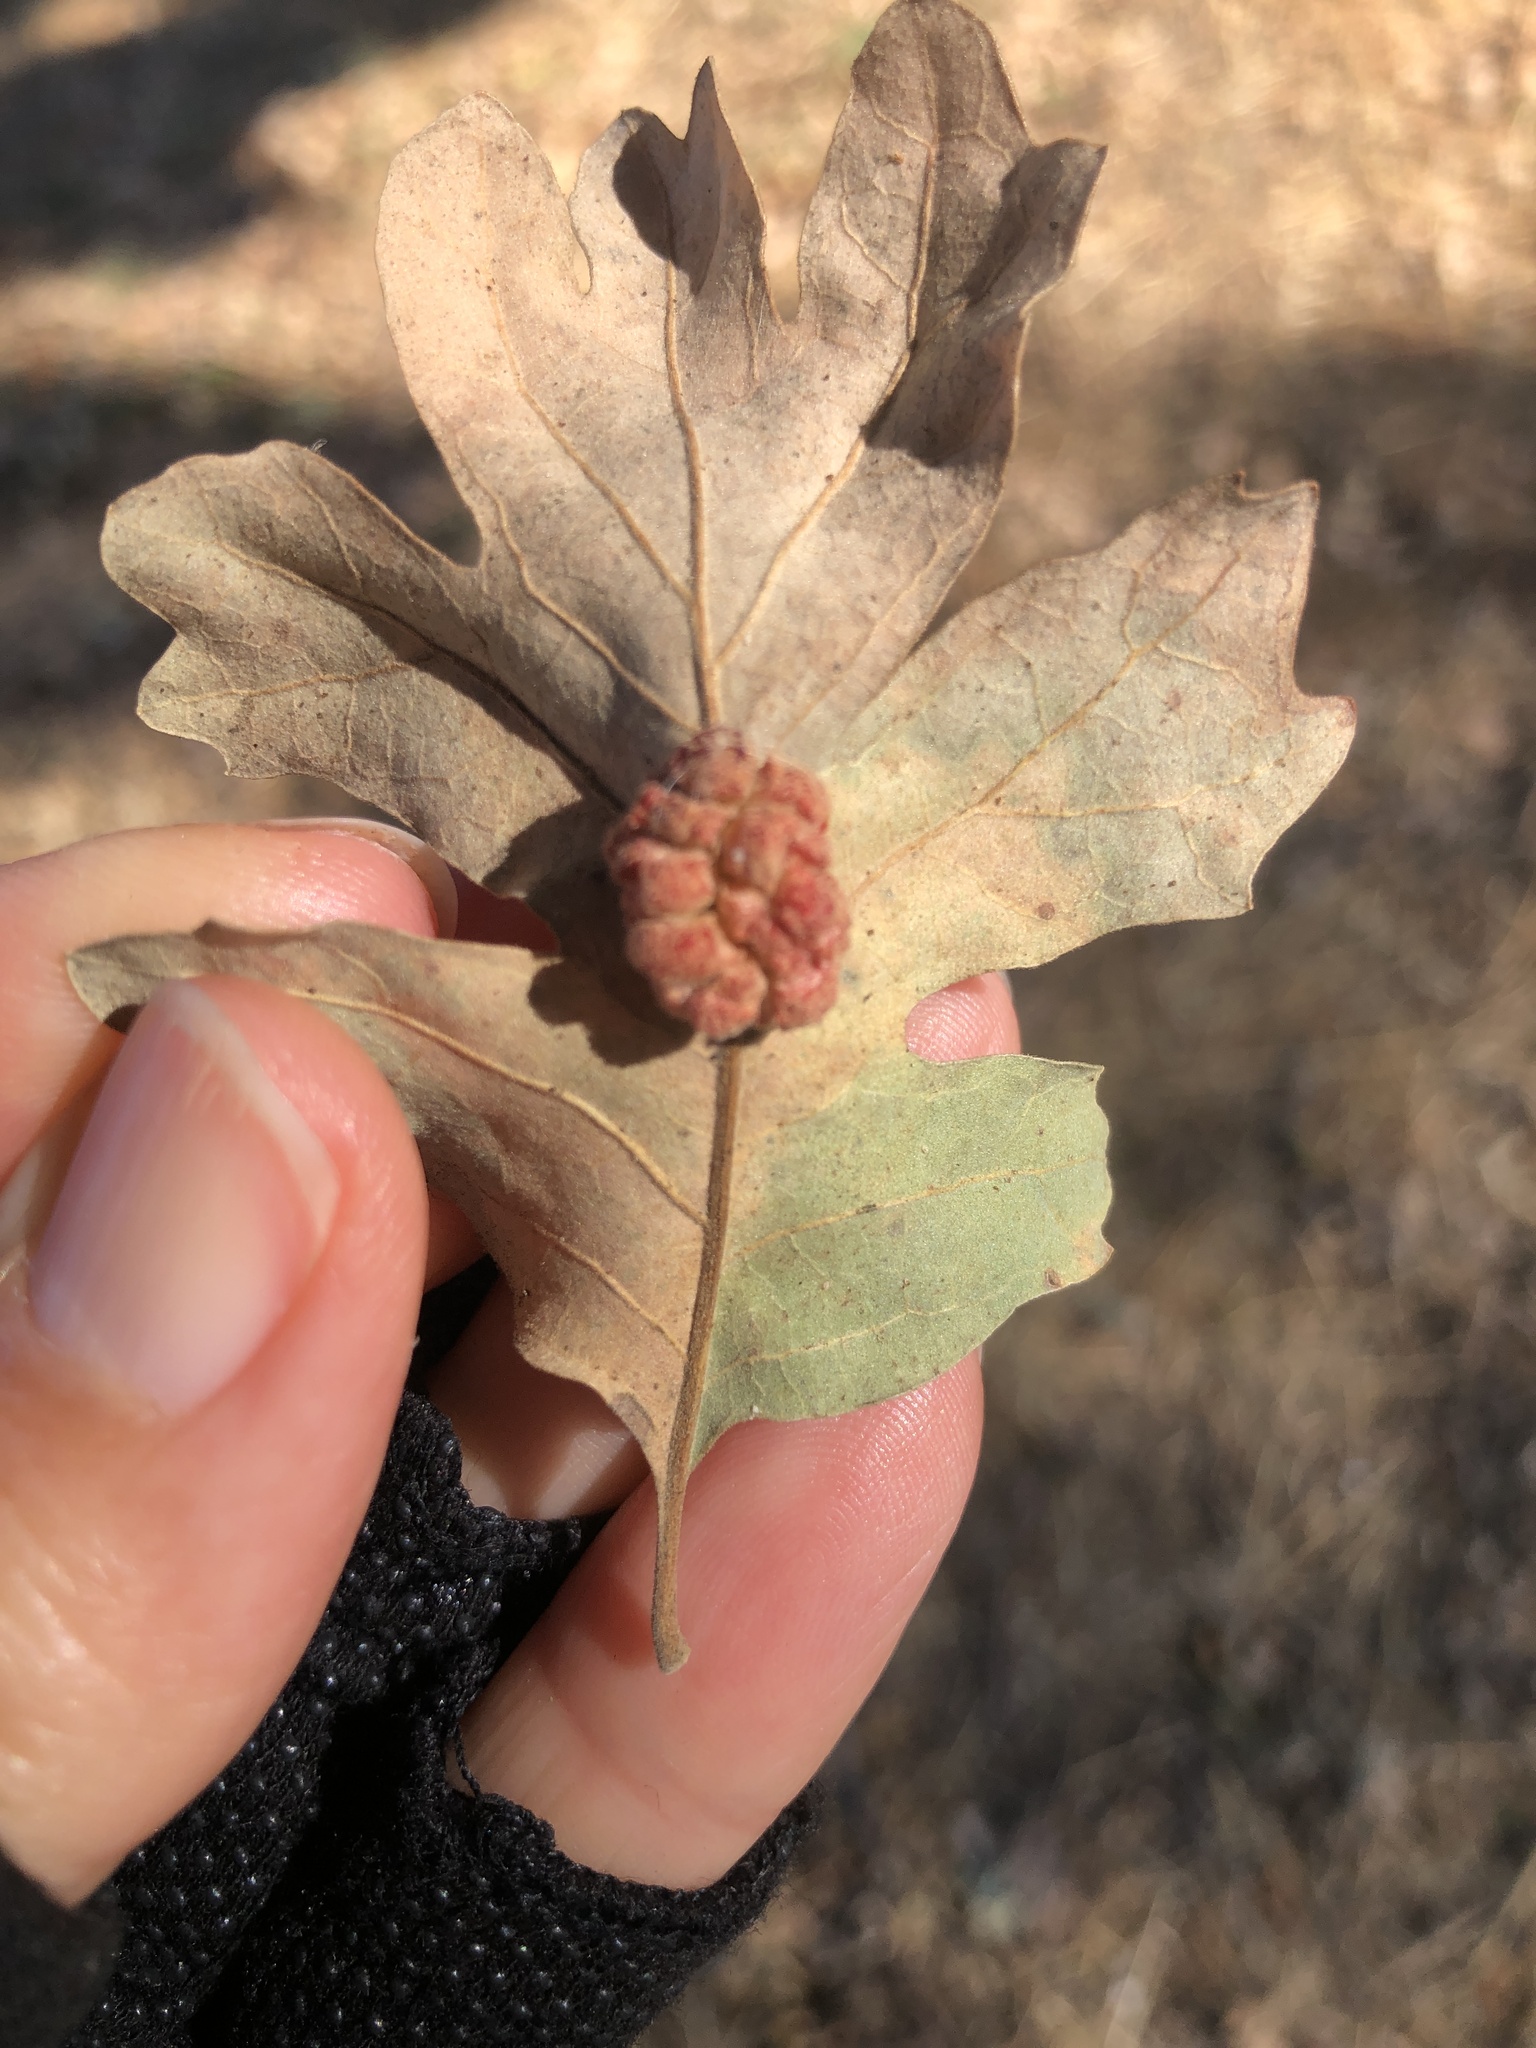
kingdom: Animalia
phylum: Arthropoda
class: Insecta
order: Hymenoptera
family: Cynipidae
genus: Andricus
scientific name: Andricus
